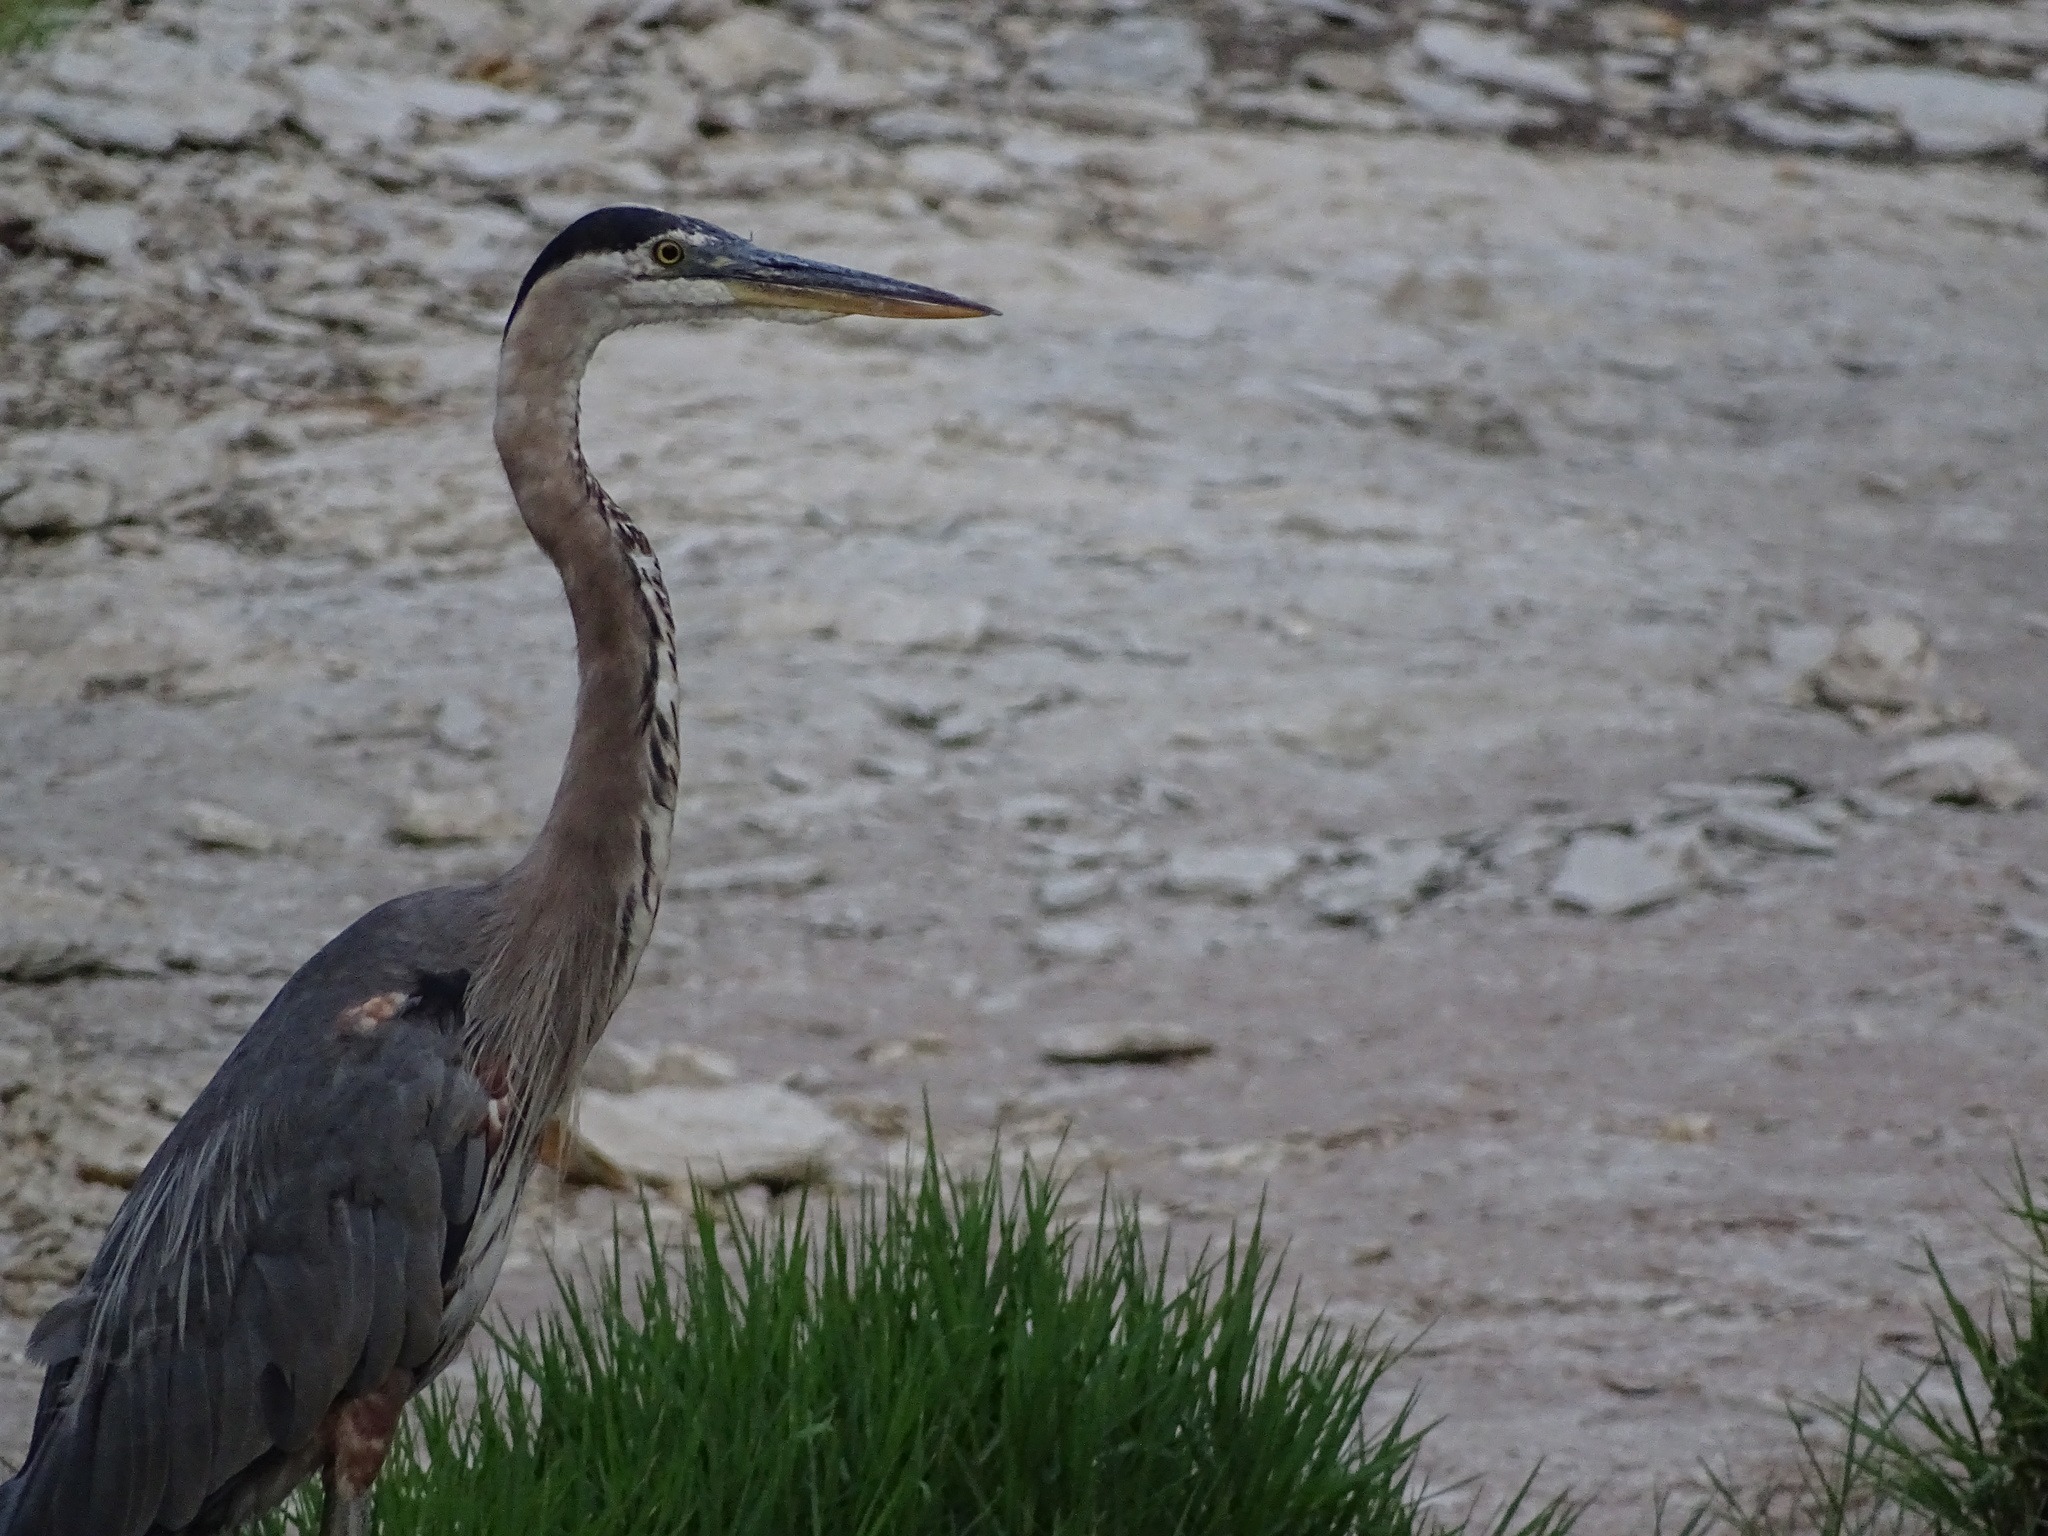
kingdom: Animalia
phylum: Chordata
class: Aves
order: Pelecaniformes
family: Ardeidae
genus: Ardea
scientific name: Ardea herodias
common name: Great blue heron
